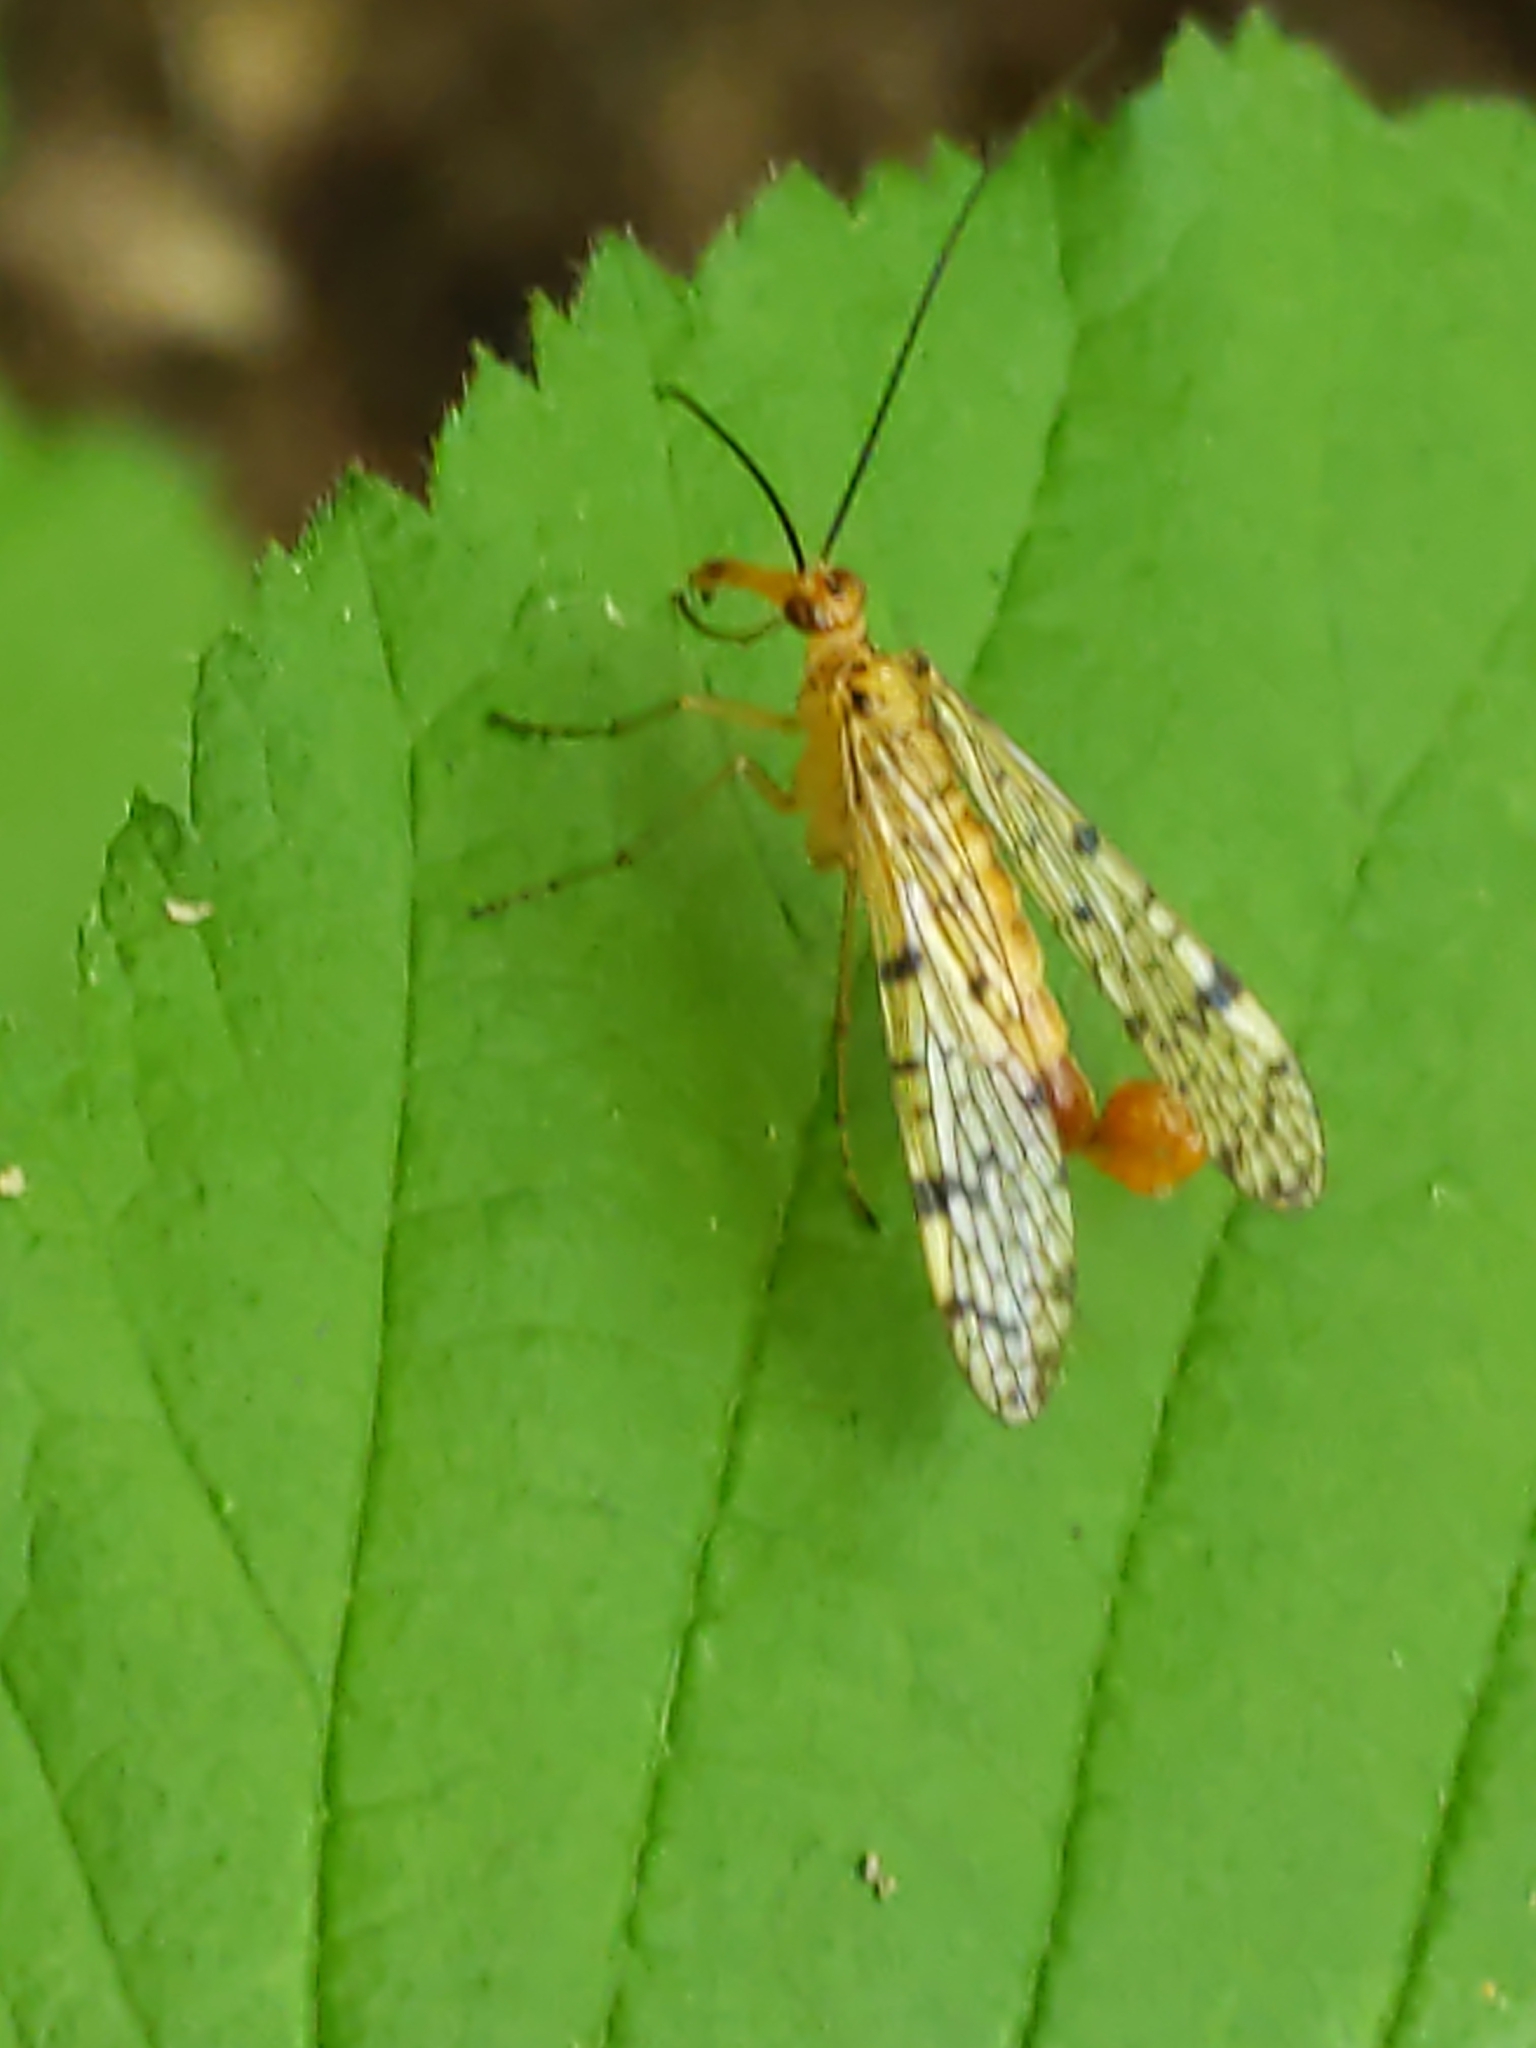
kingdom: Animalia
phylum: Arthropoda
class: Insecta
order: Mecoptera
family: Panorpidae
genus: Panorpa
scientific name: Panorpa
